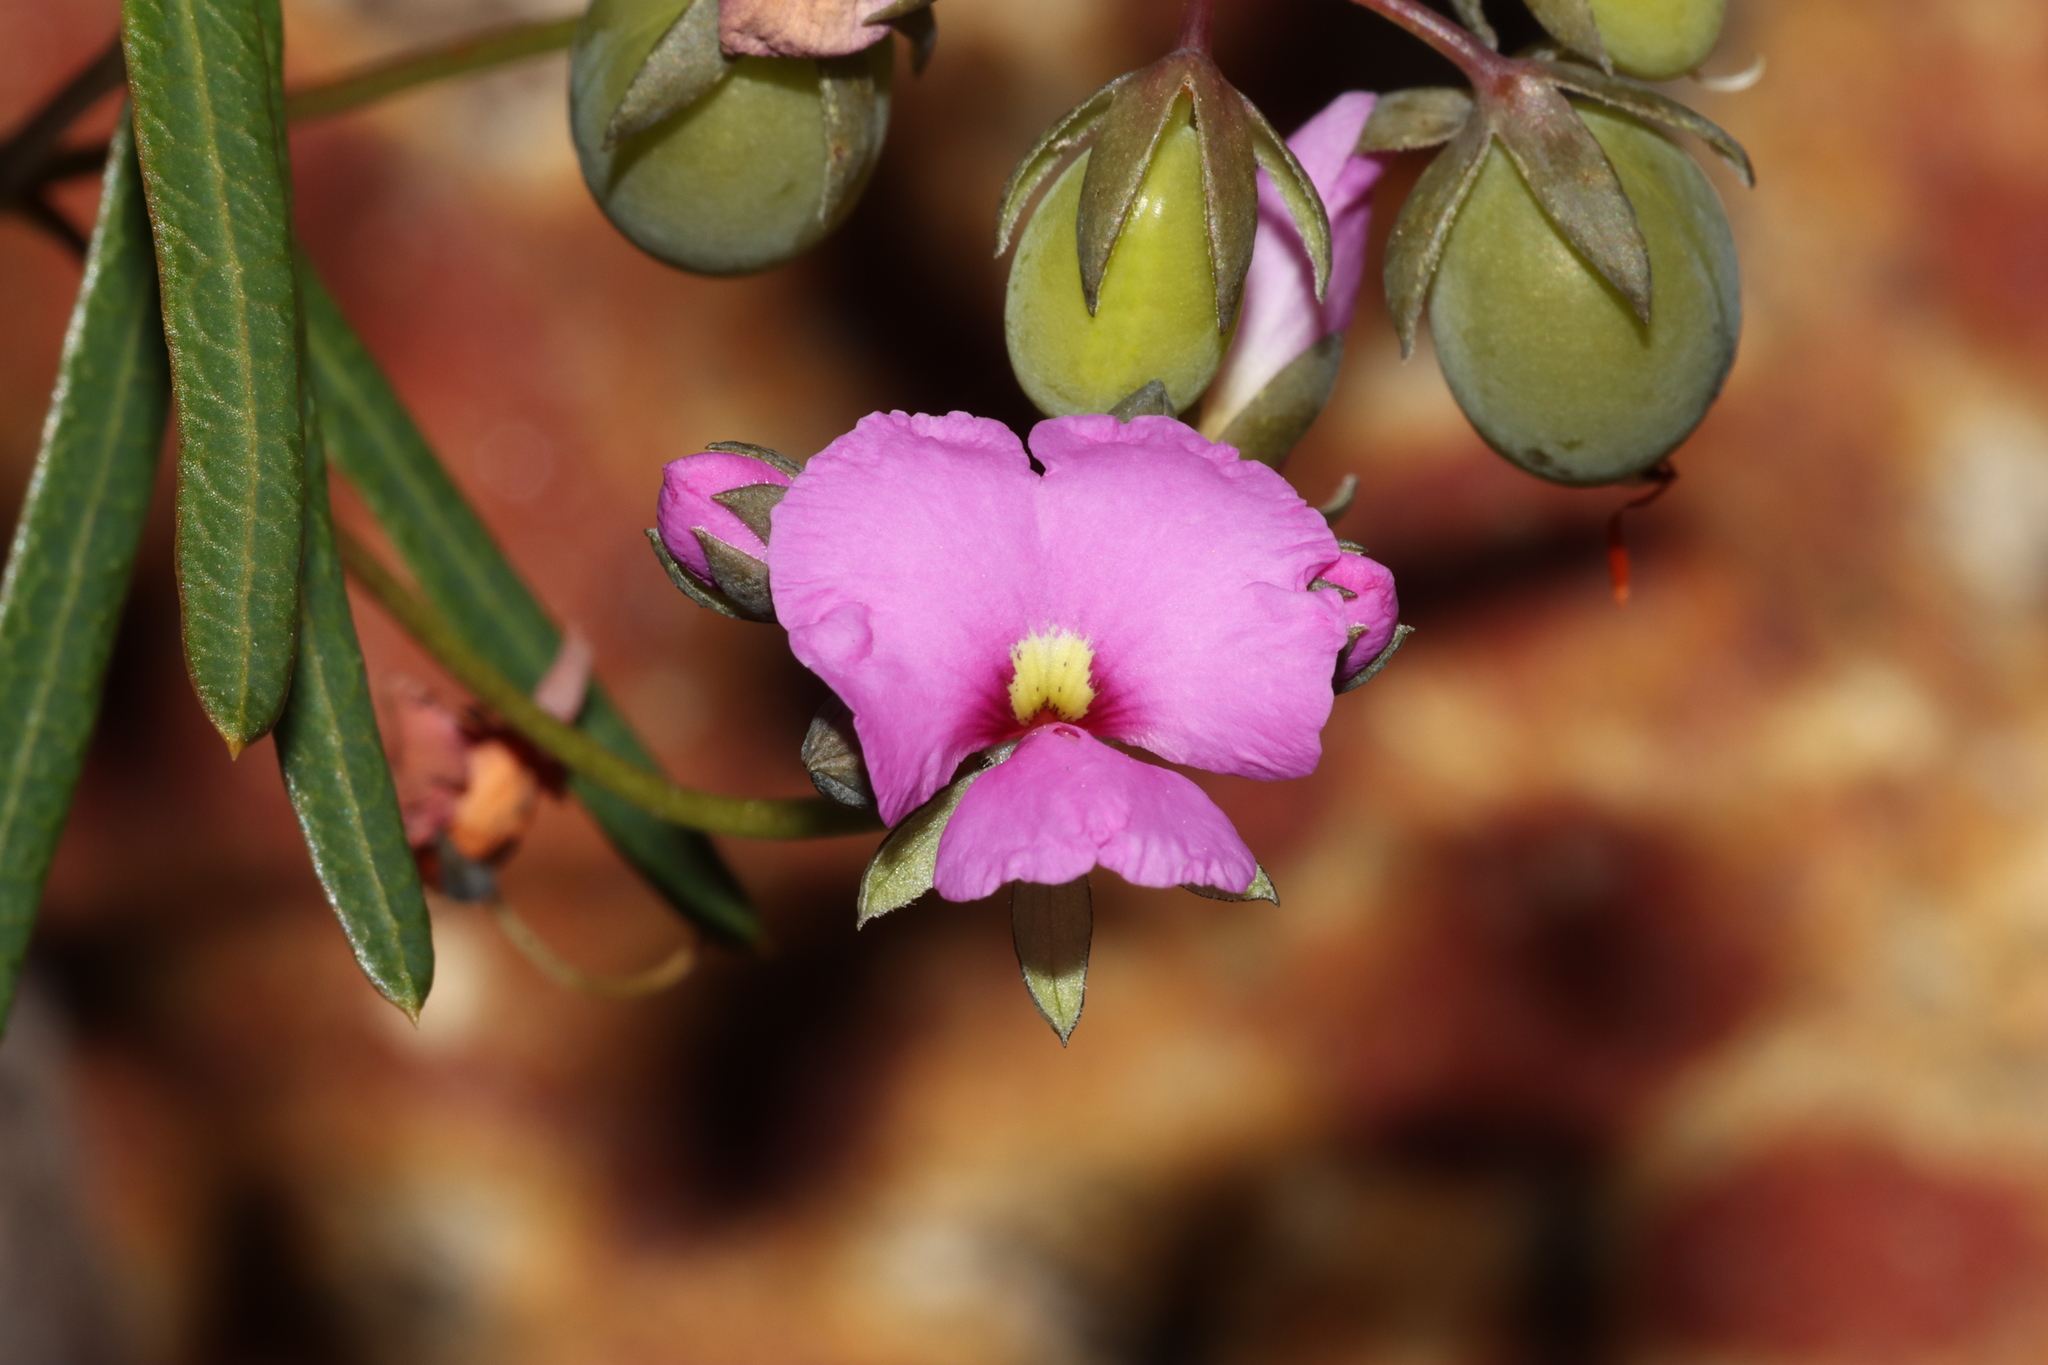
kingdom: Plantae
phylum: Tracheophyta
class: Magnoliopsida
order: Fabales
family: Fabaceae
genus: Gompholobium
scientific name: Gompholobium knightianum
